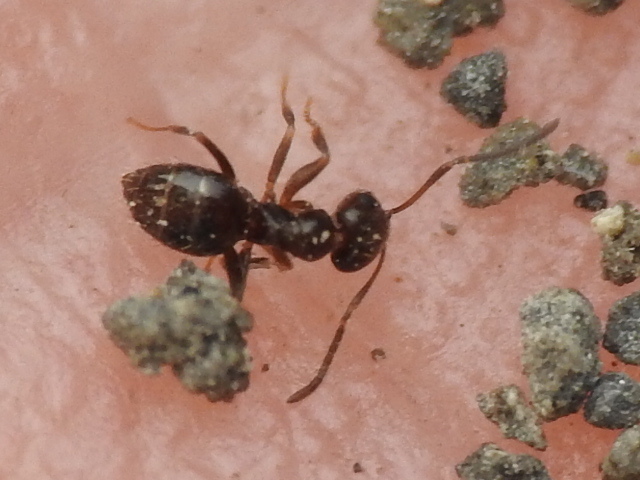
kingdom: Animalia
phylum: Arthropoda
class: Insecta
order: Hymenoptera
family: Formicidae
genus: Brachymyrmex
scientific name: Brachymyrmex patagonicus
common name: Dark rover ant
